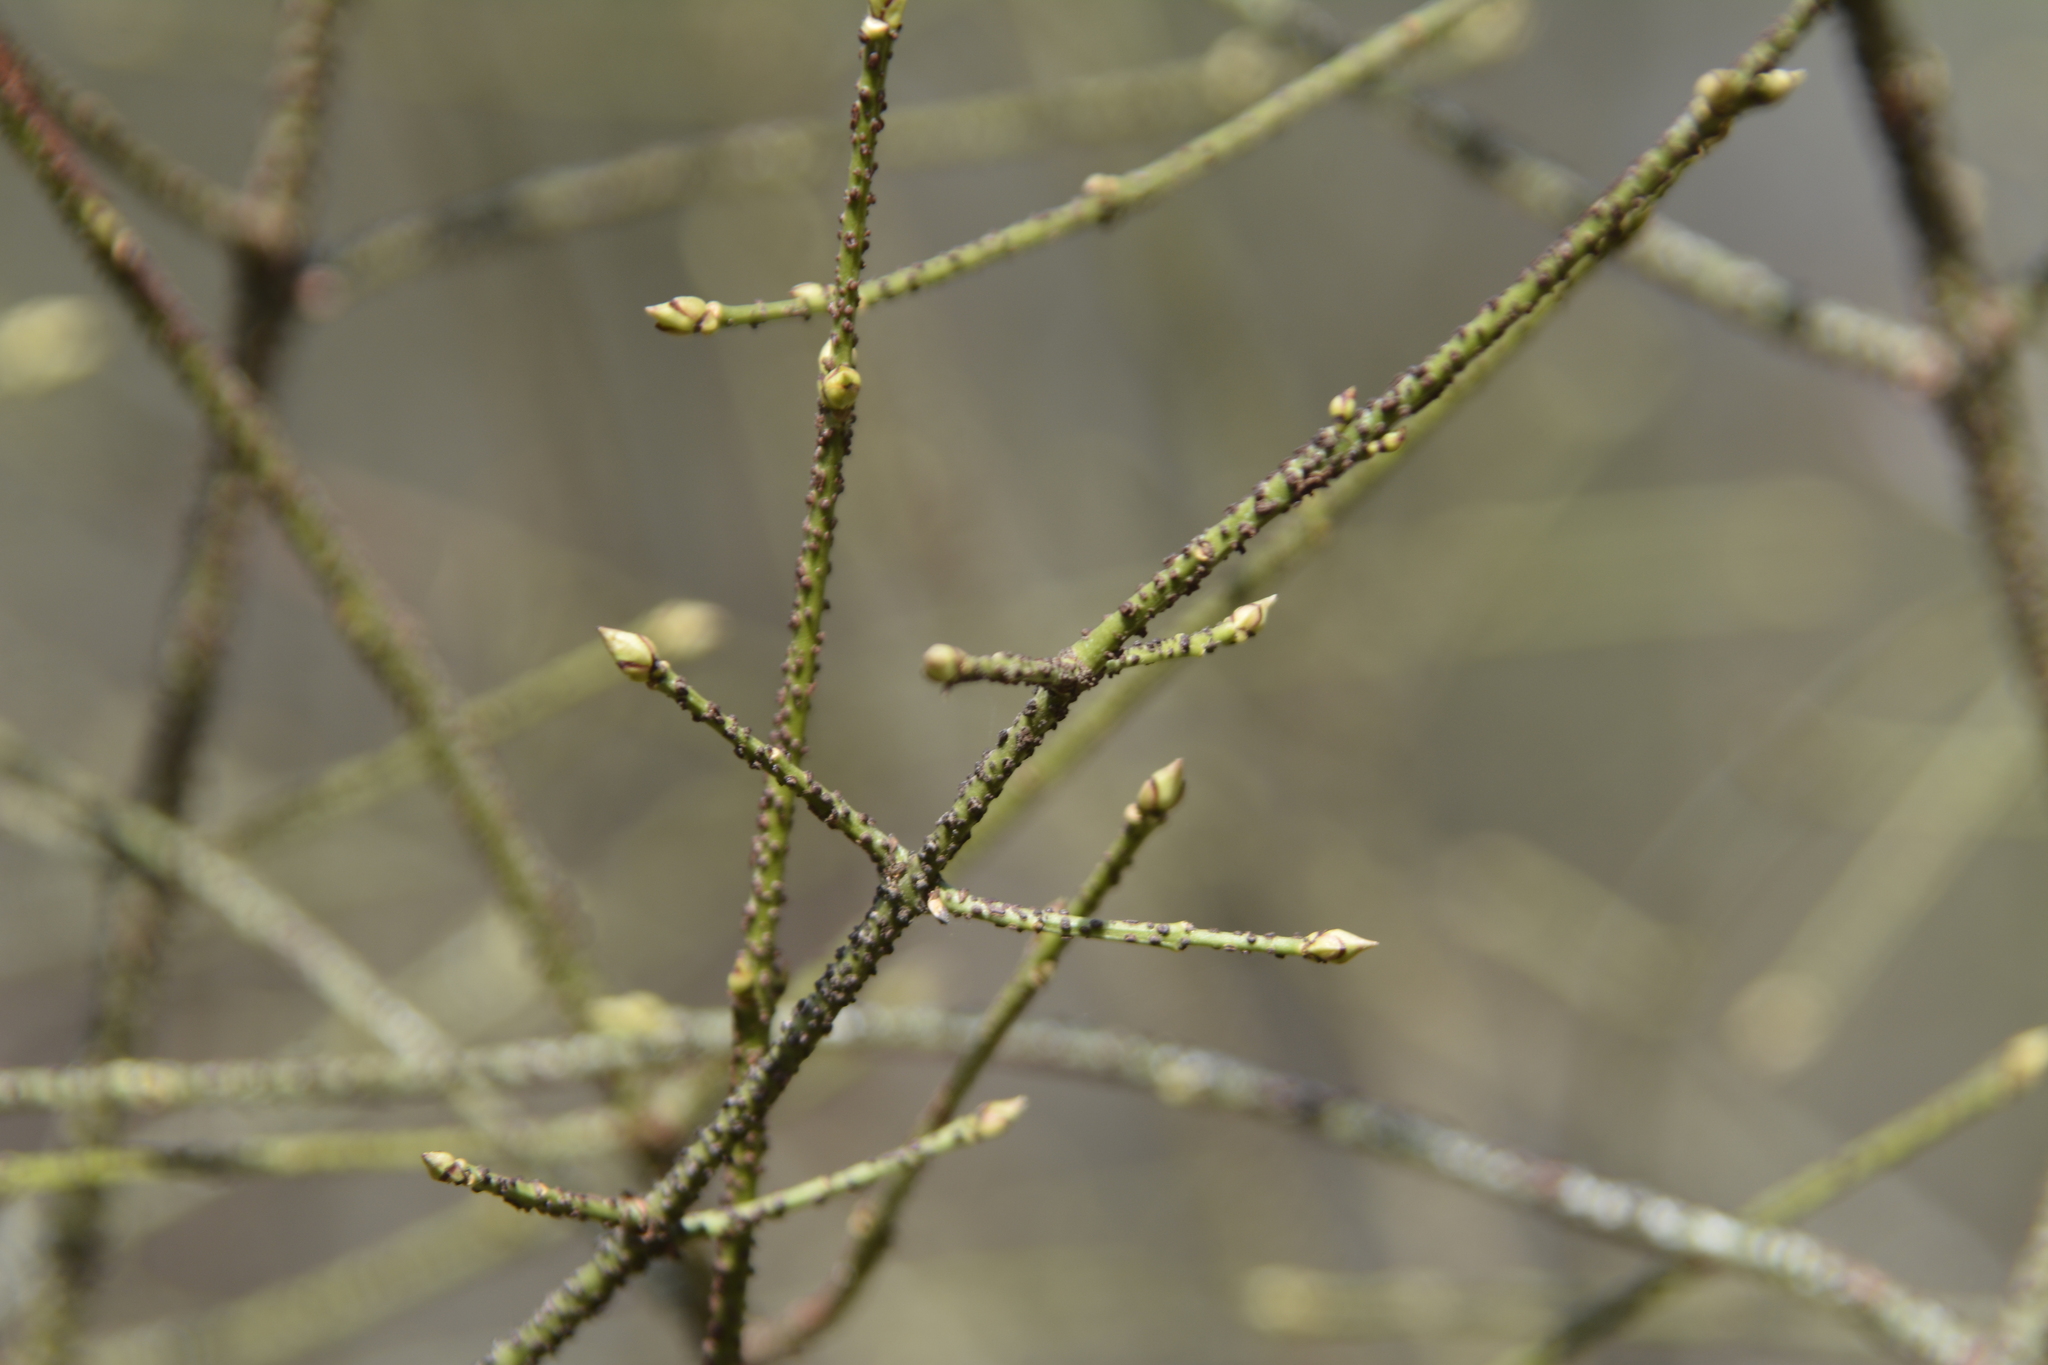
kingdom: Plantae
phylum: Tracheophyta
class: Magnoliopsida
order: Celastrales
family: Celastraceae
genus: Euonymus
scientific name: Euonymus verrucosus
